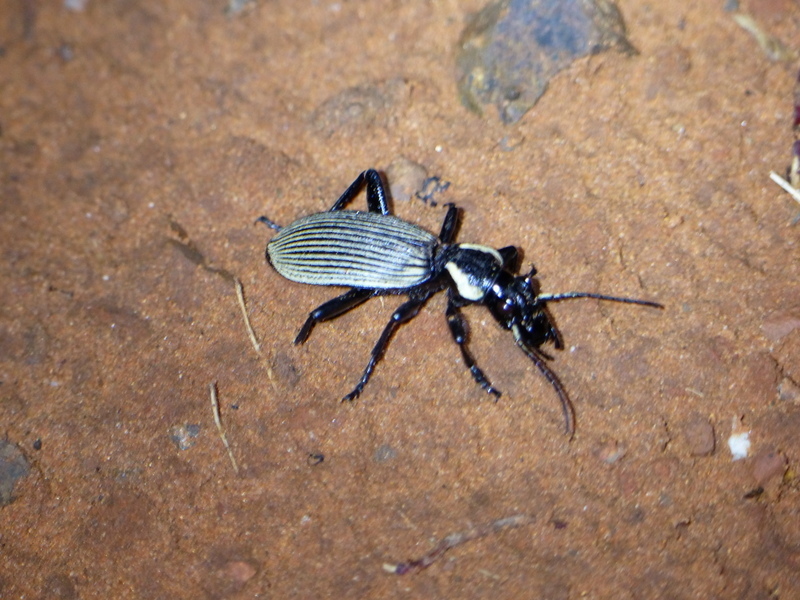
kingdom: Animalia
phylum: Arthropoda
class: Insecta
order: Coleoptera
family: Carabidae
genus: Anthia
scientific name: Anthia burchelli
